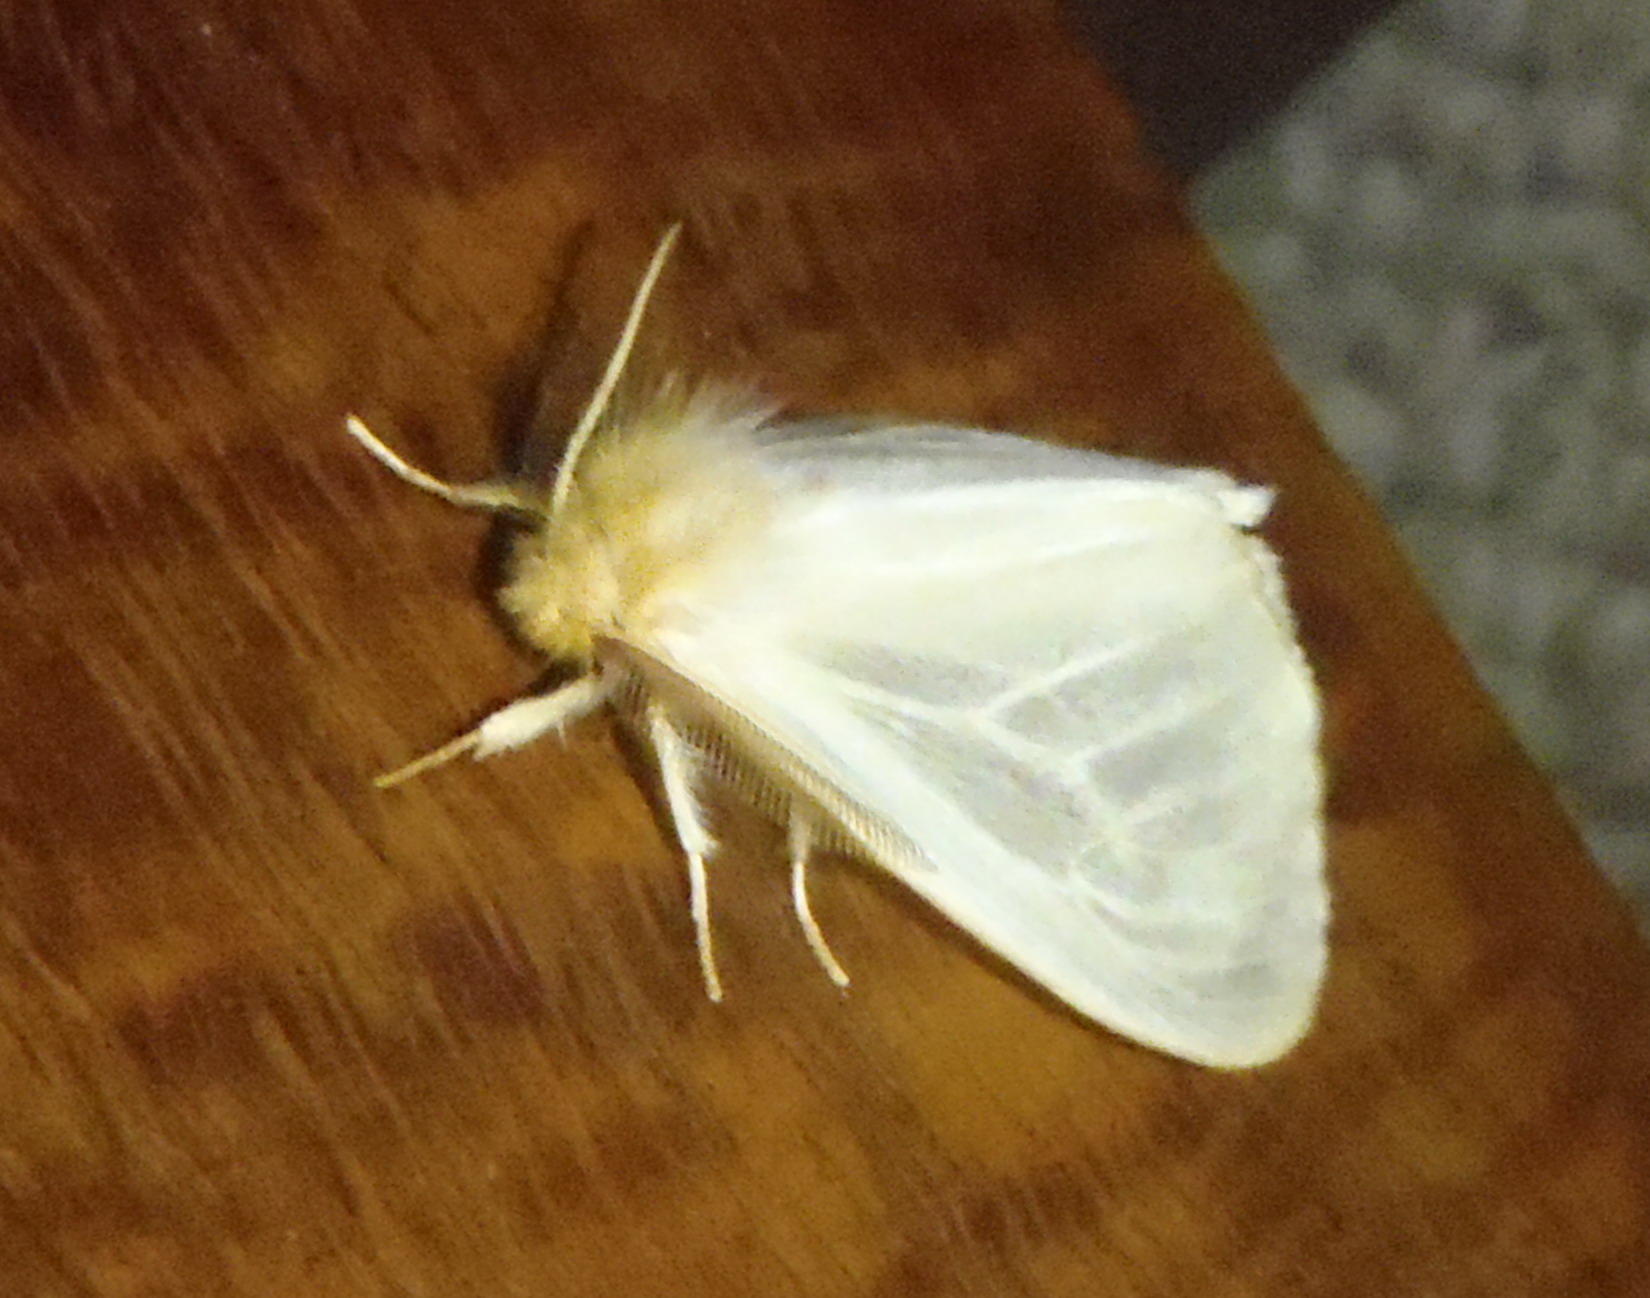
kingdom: Animalia
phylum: Arthropoda
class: Insecta
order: Lepidoptera
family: Erebidae
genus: Creagra
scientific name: Creagra liturata
